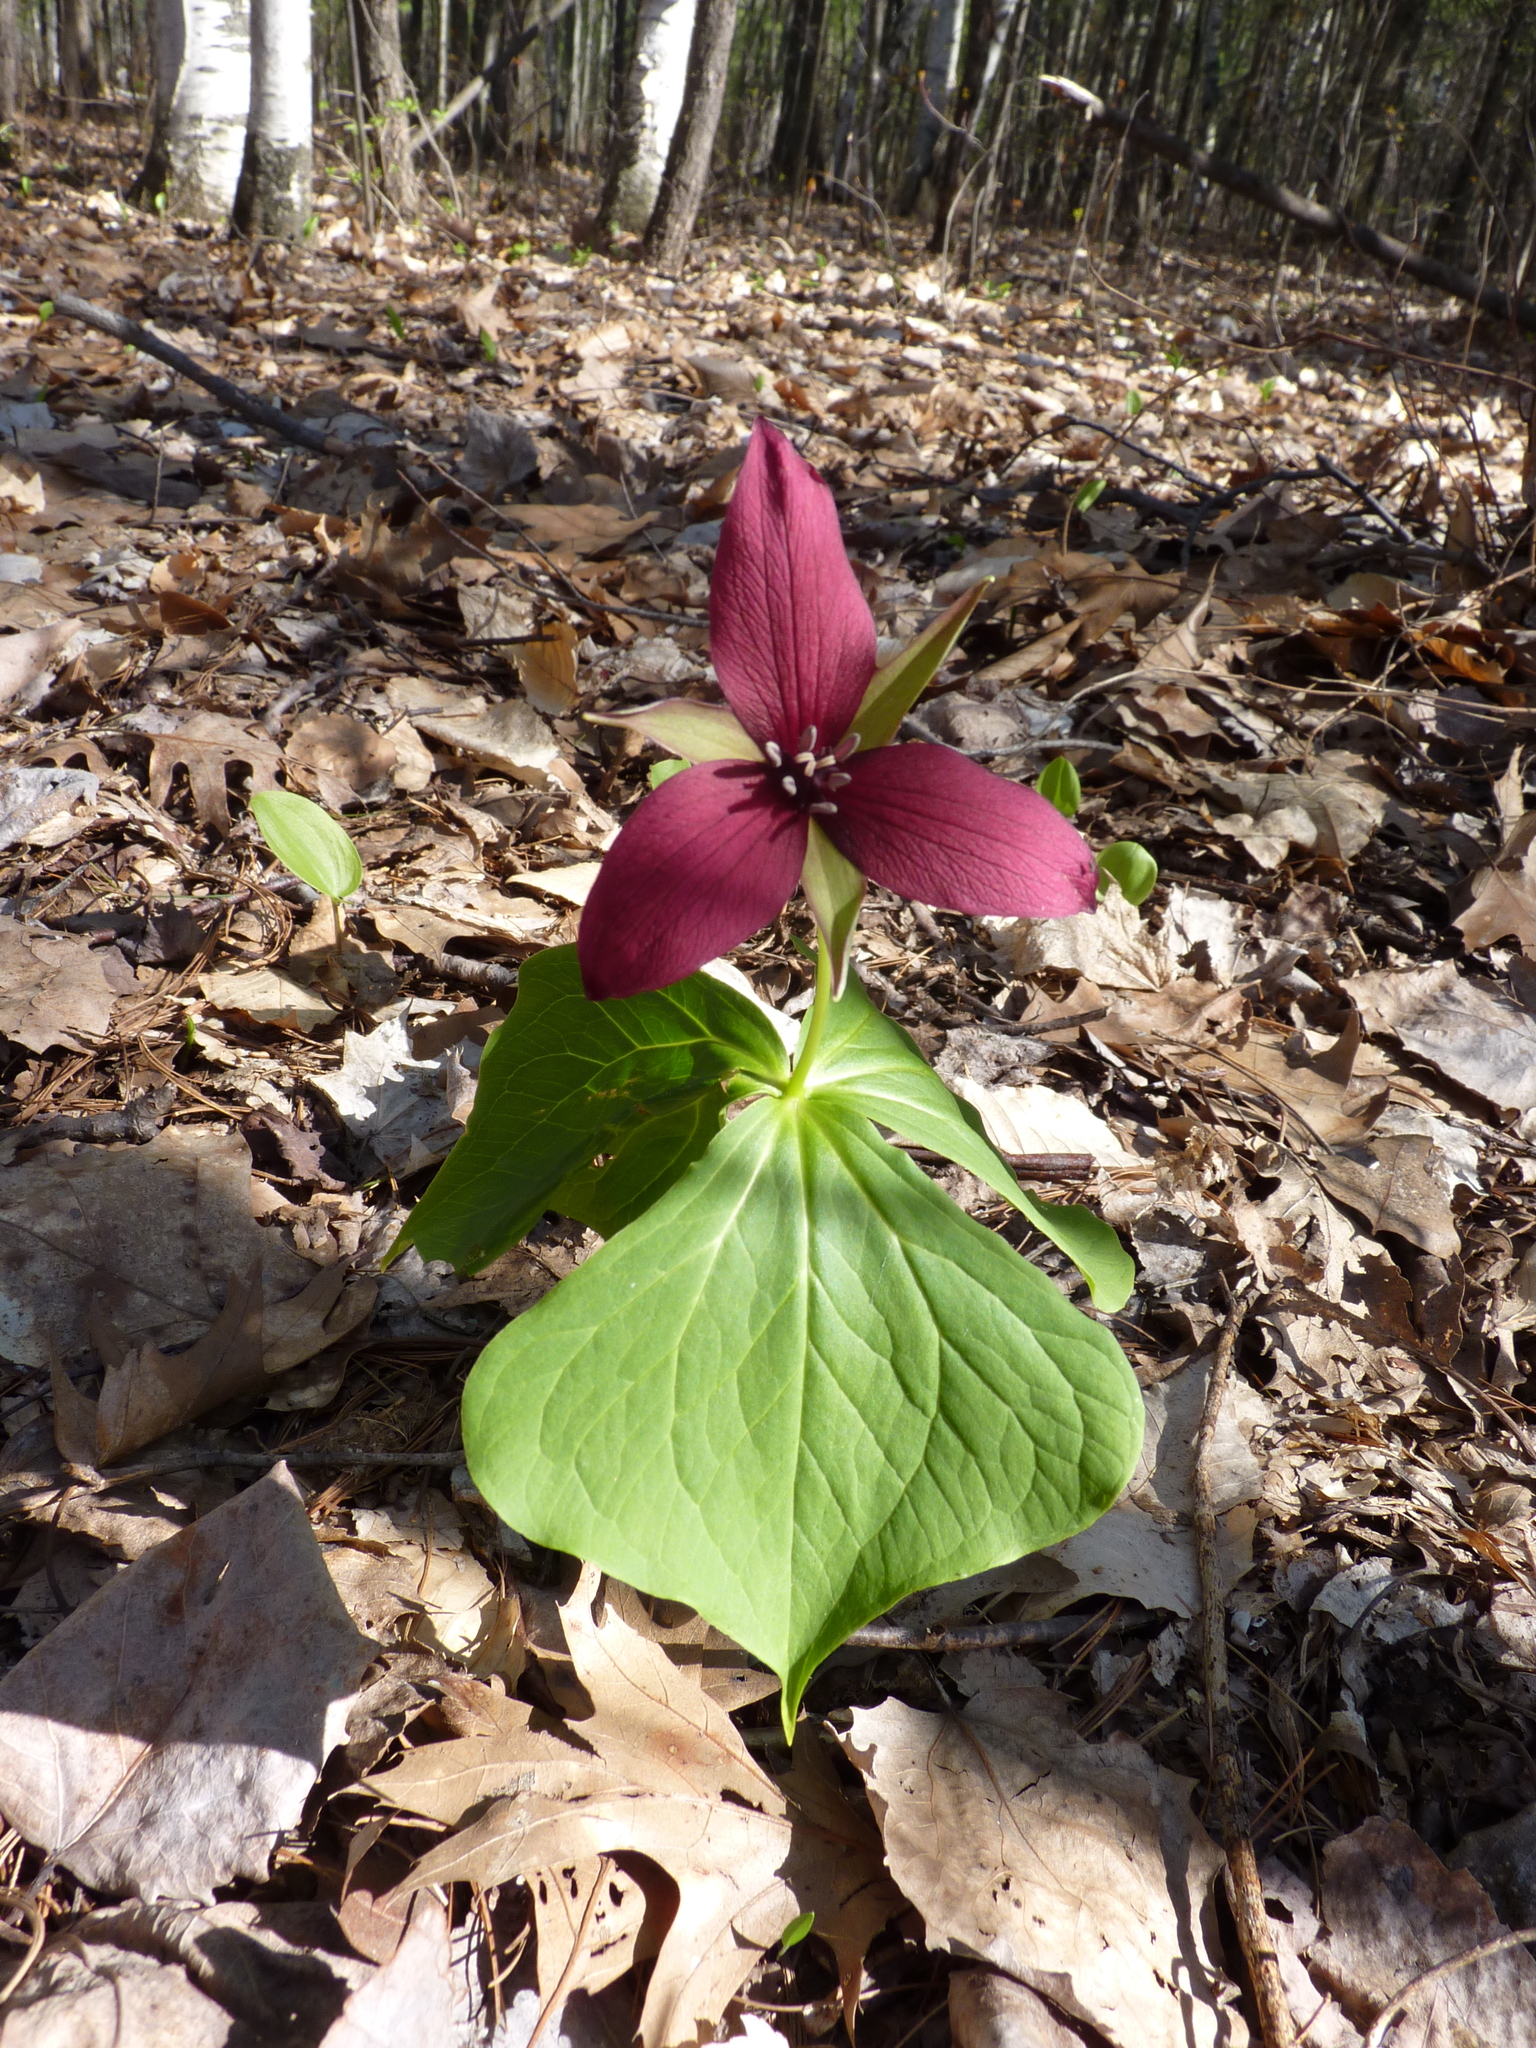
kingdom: Plantae
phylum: Tracheophyta
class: Liliopsida
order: Liliales
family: Melanthiaceae
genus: Trillium
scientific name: Trillium erectum
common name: Purple trillium
